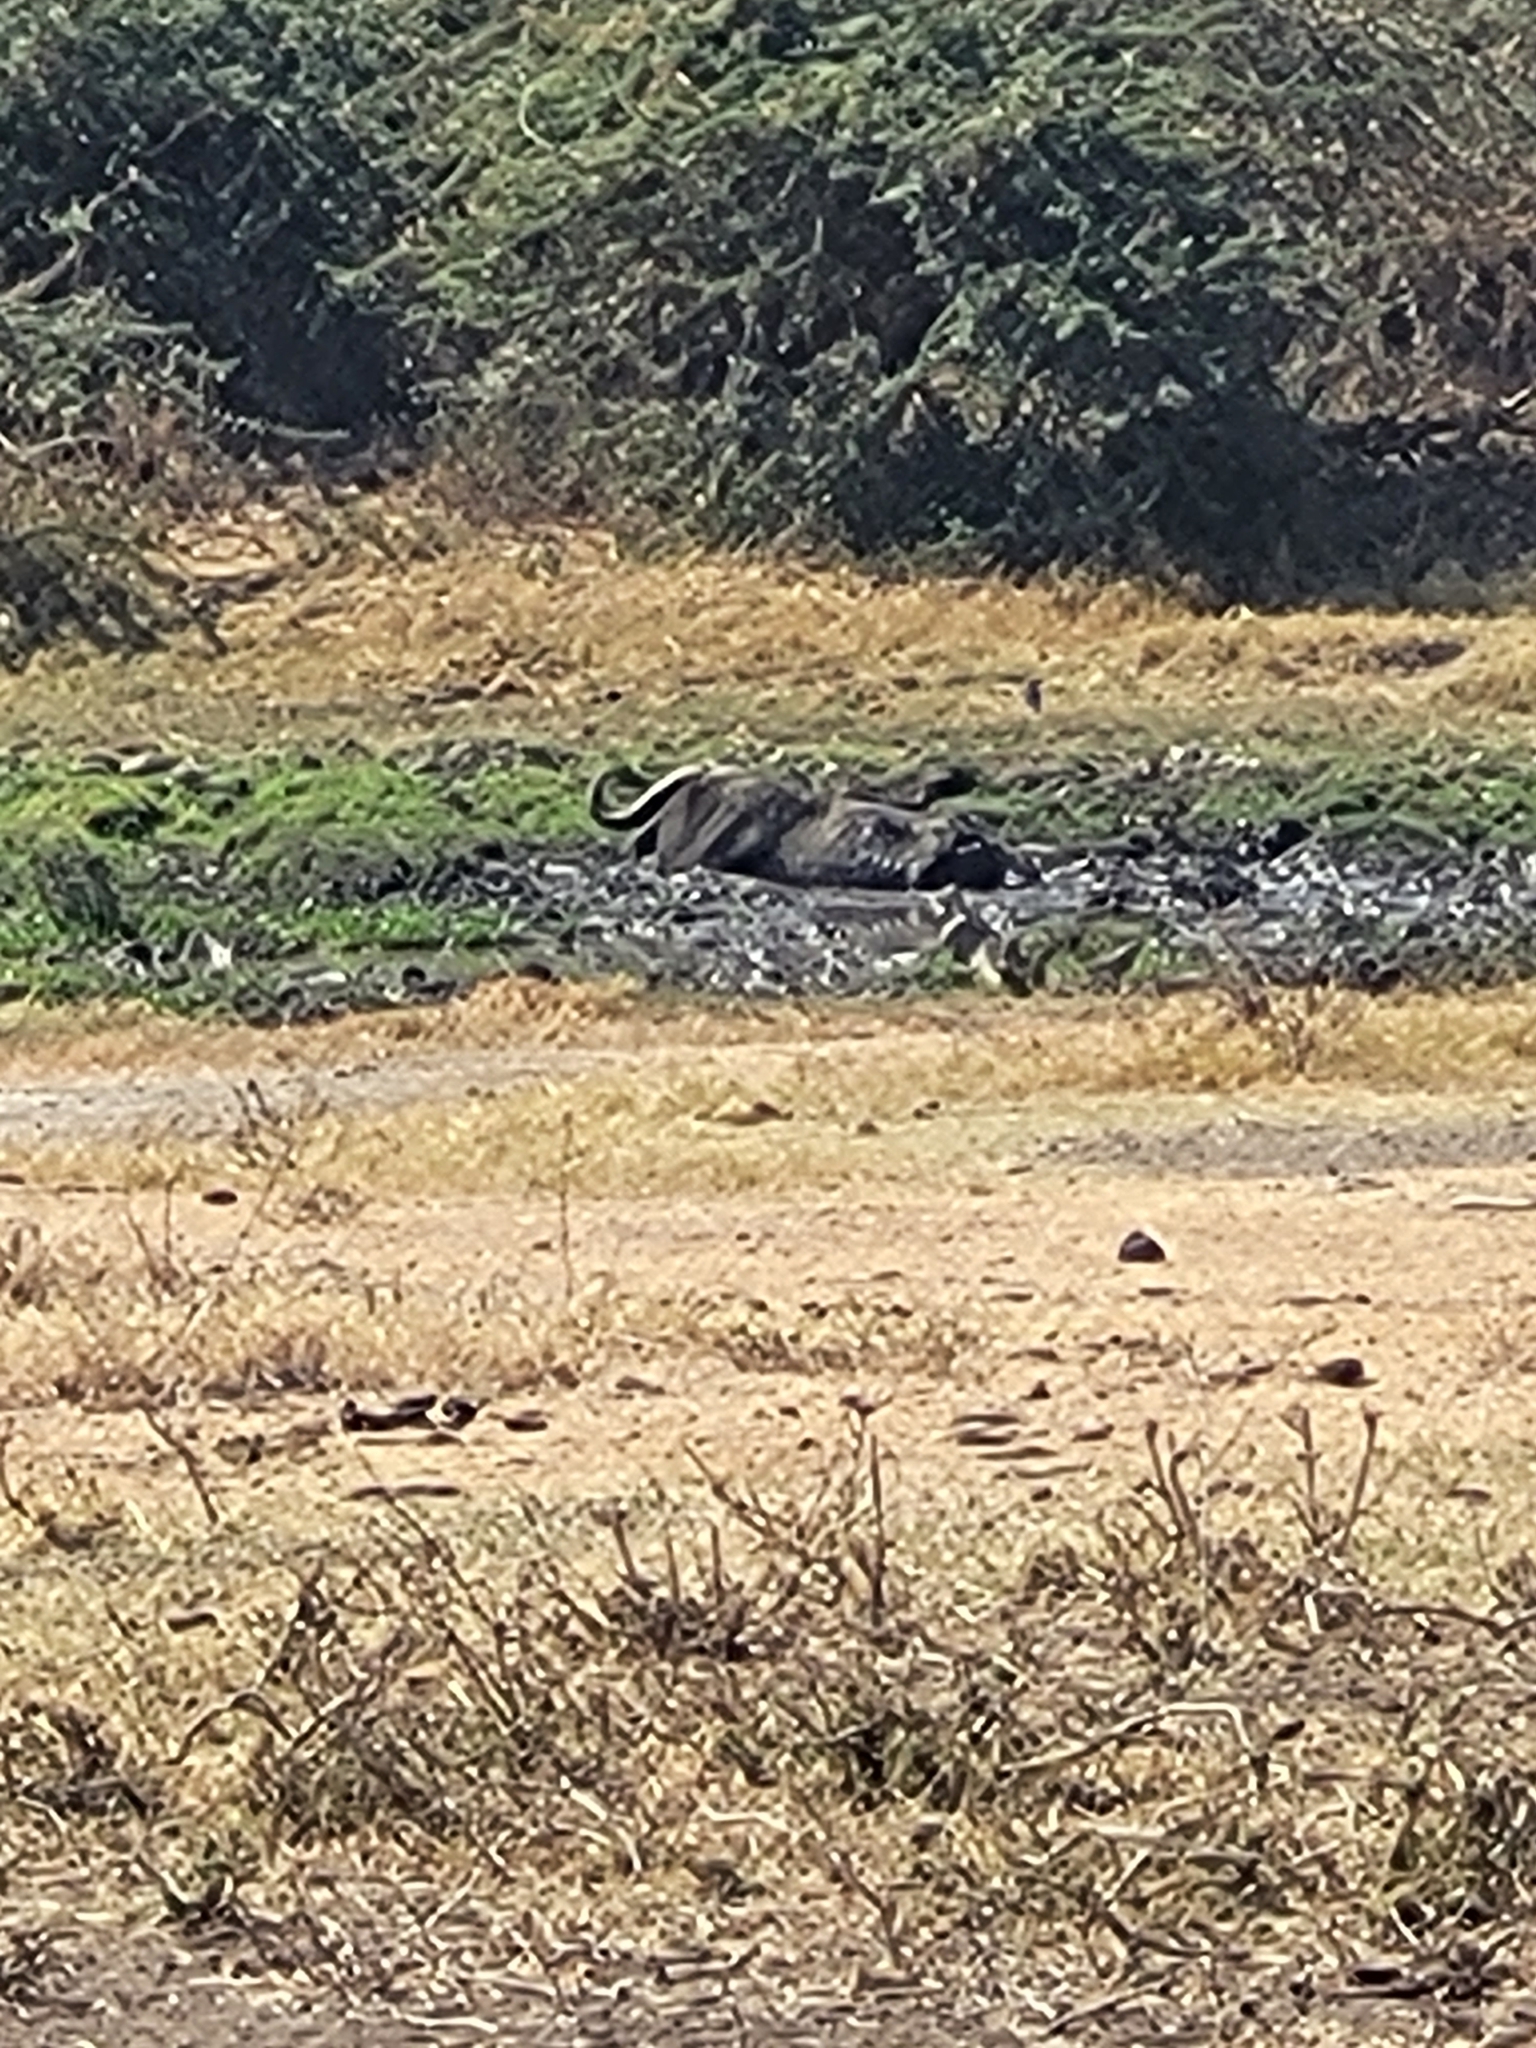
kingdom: Animalia
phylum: Chordata
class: Mammalia
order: Artiodactyla
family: Bovidae
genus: Syncerus
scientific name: Syncerus caffer
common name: African buffalo
